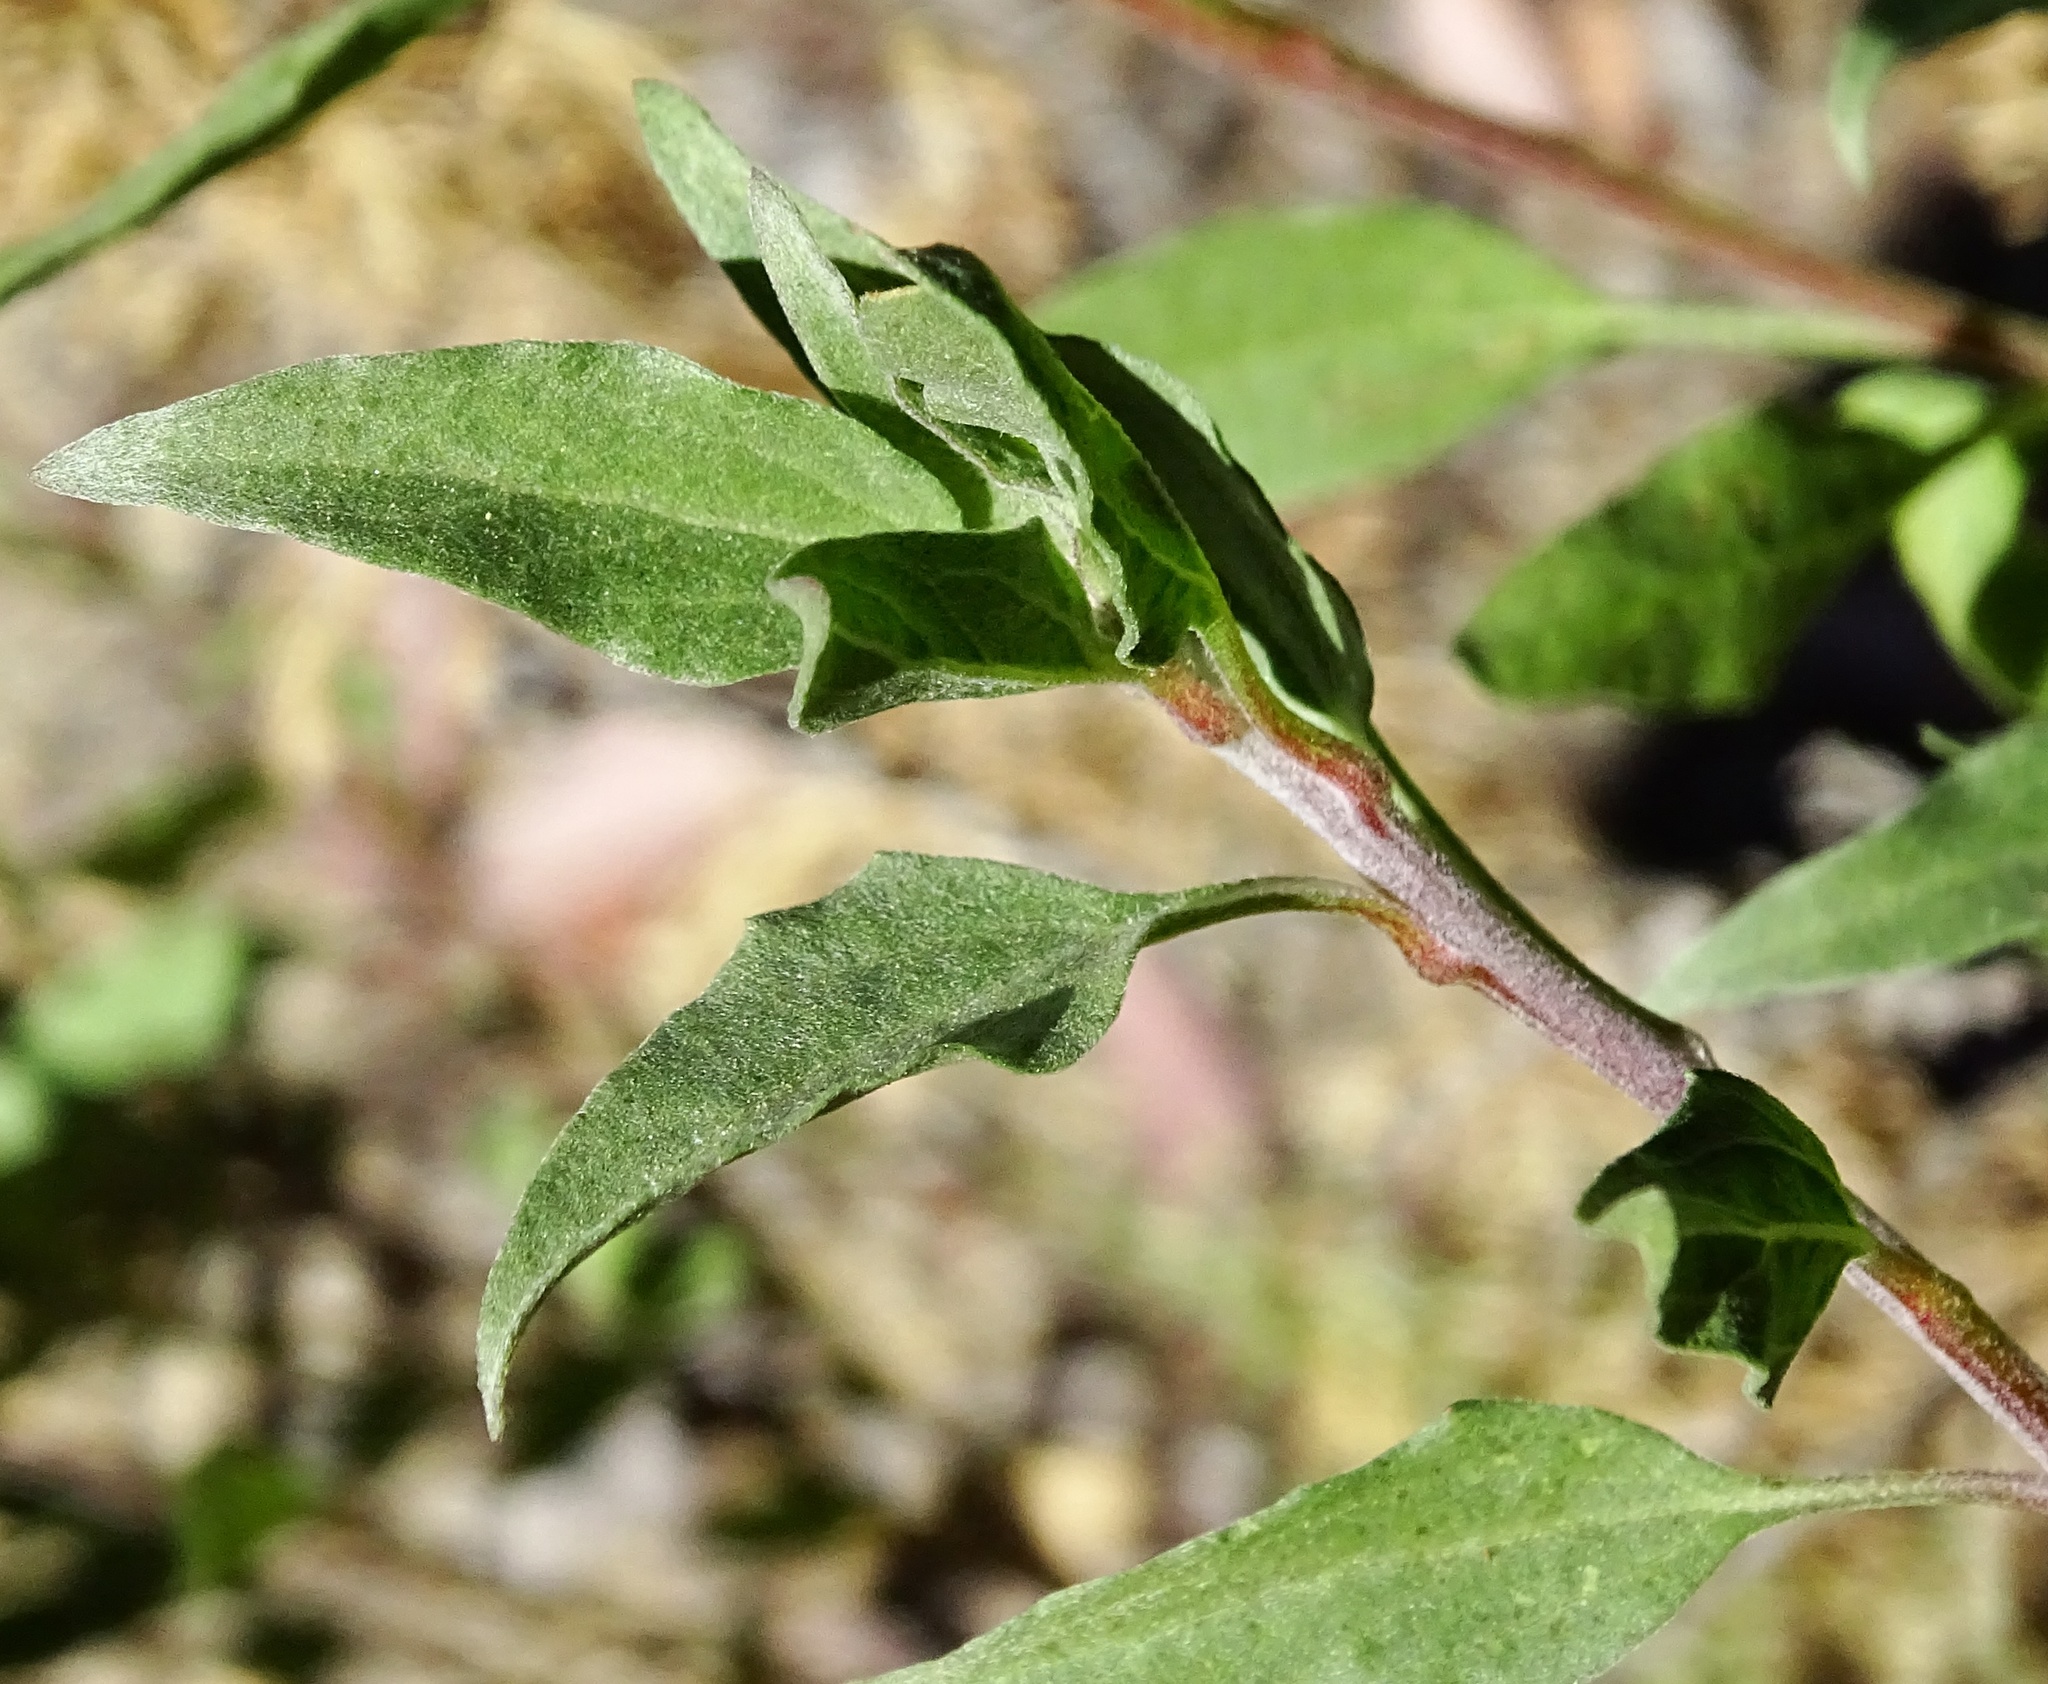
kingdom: Plantae
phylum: Tracheophyta
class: Magnoliopsida
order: Asterales
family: Asteraceae
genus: Encelia
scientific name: Encelia californica
